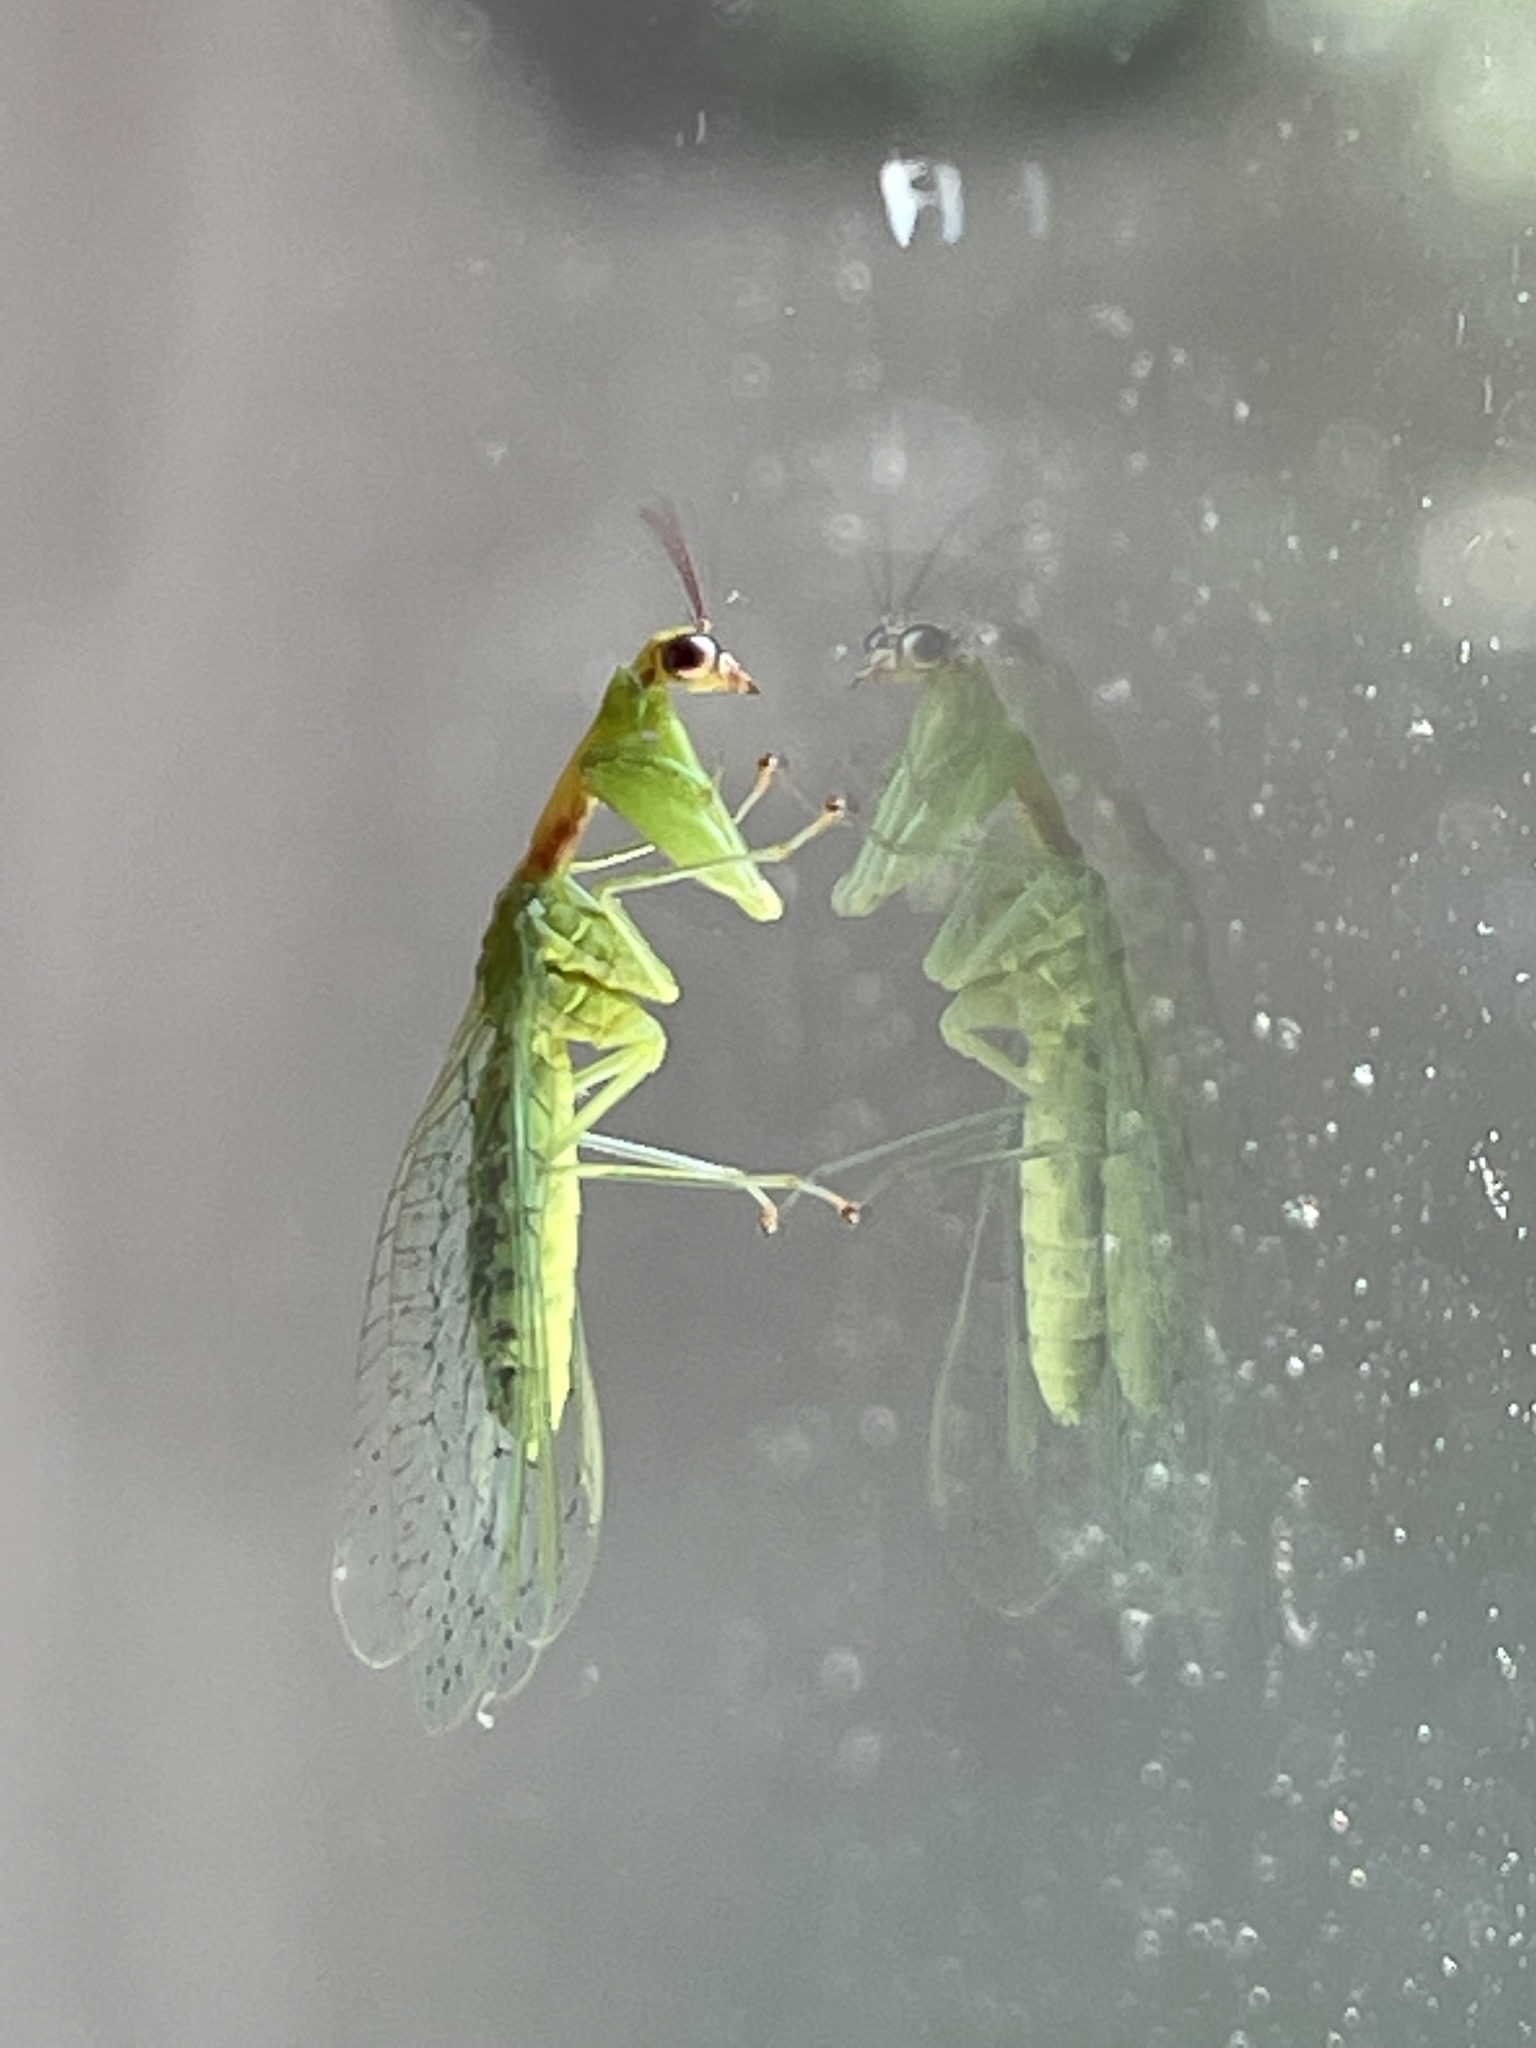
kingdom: Animalia
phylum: Arthropoda
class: Insecta
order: Neuroptera
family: Mantispidae
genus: Zeugomantispa
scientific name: Zeugomantispa minuta
